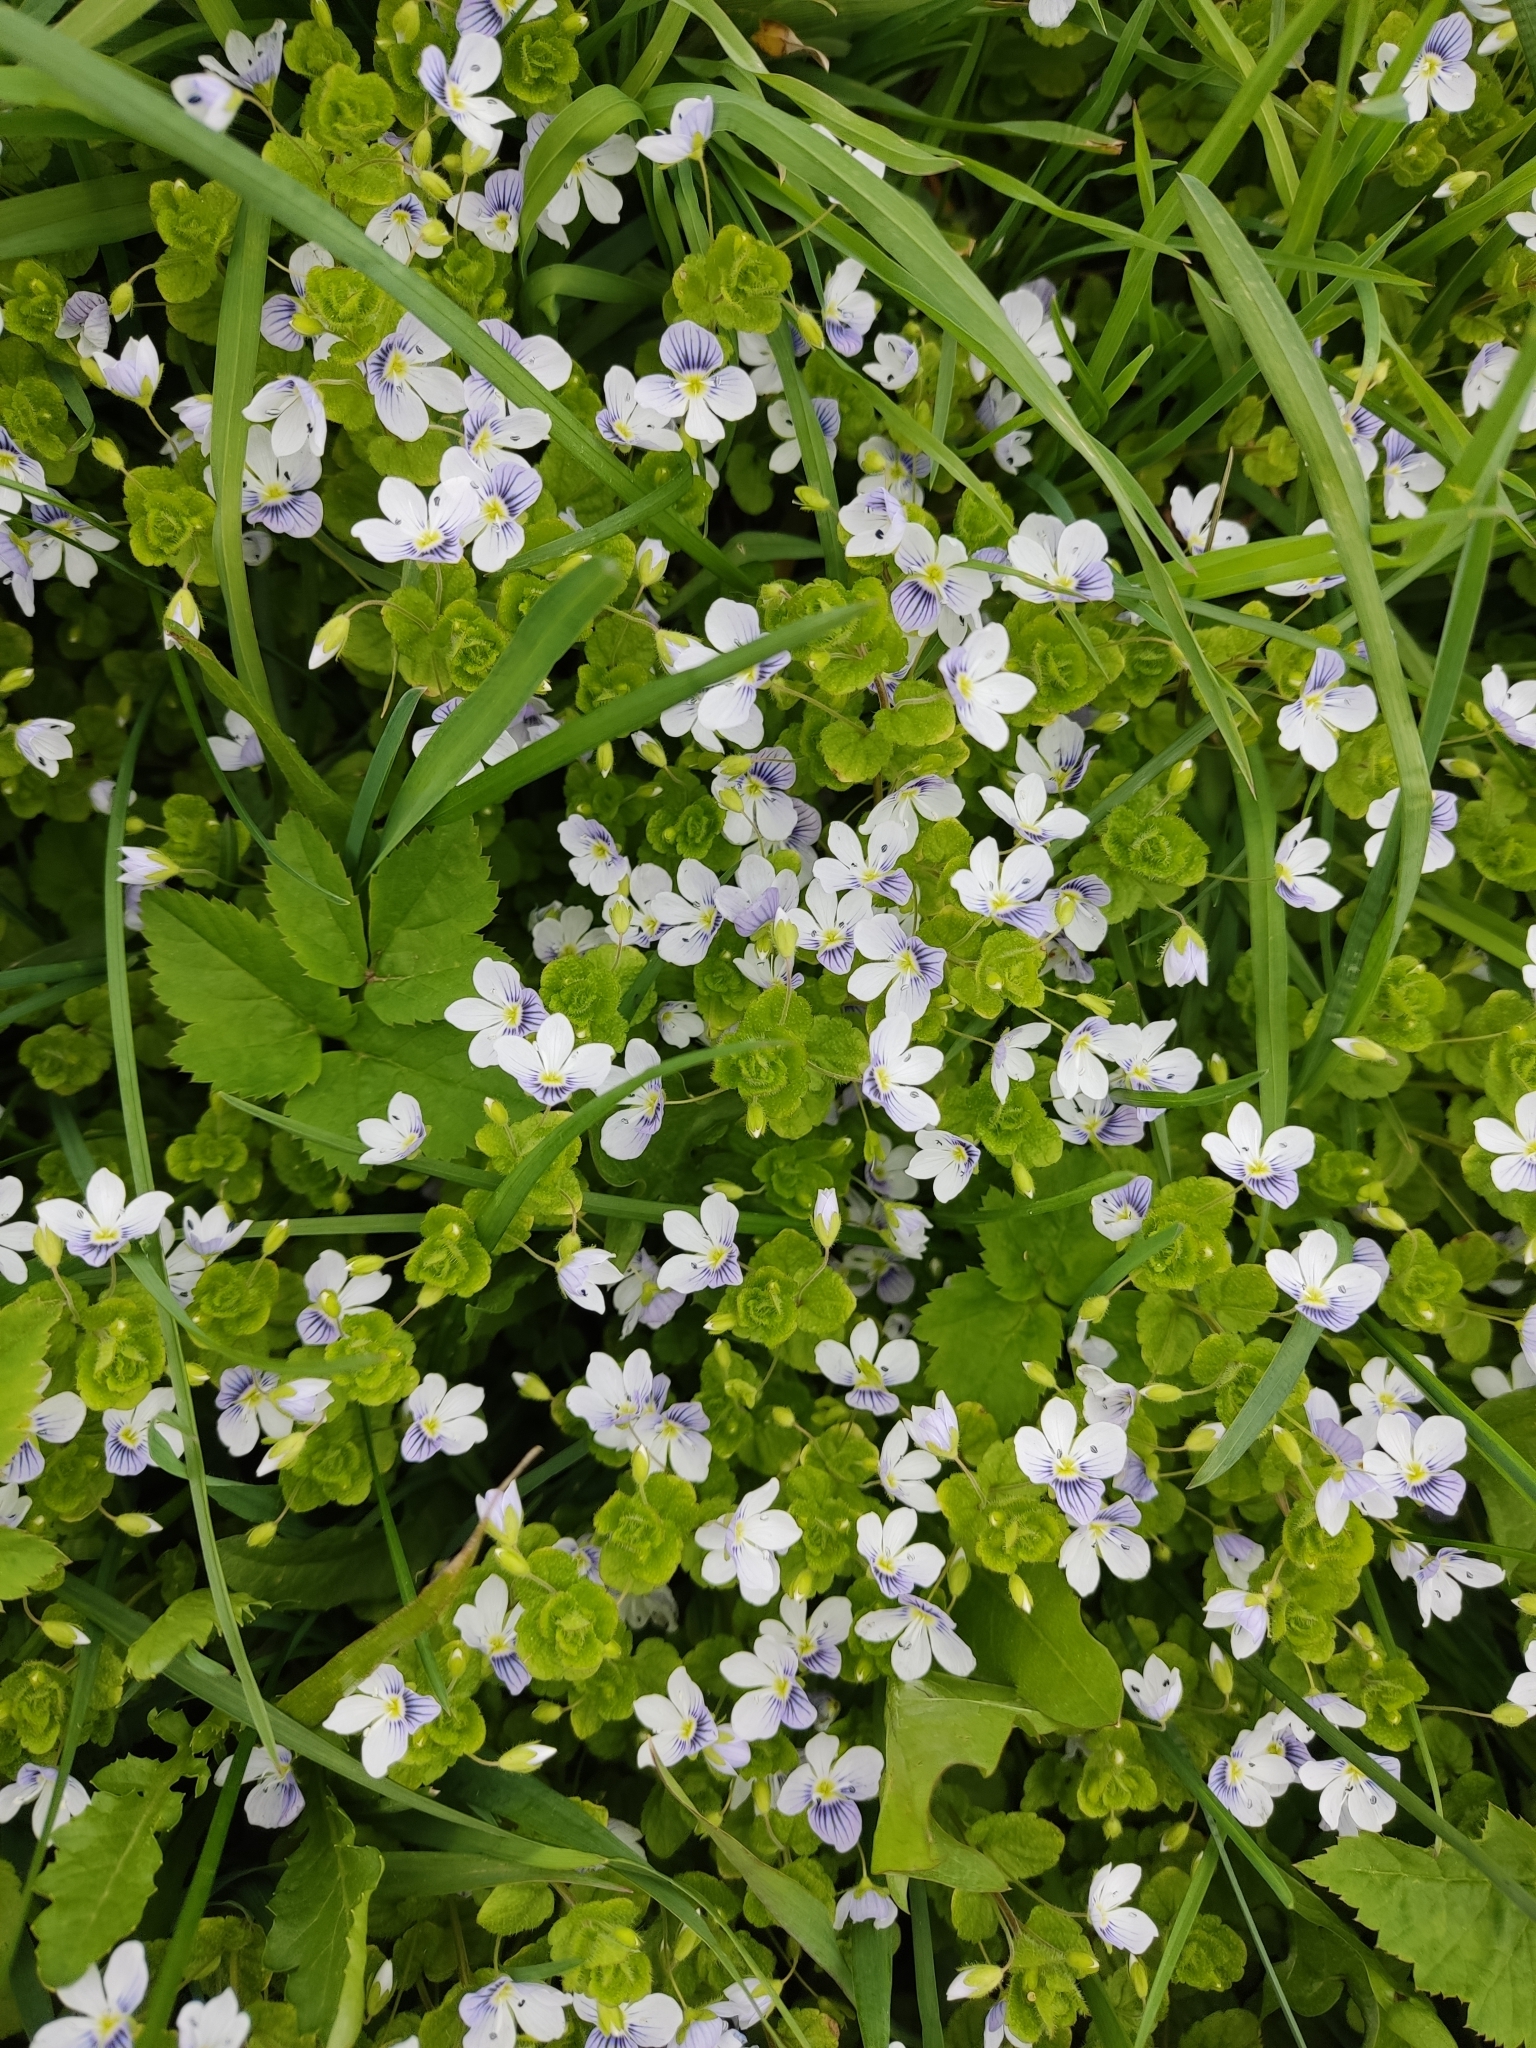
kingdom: Plantae
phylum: Tracheophyta
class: Magnoliopsida
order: Lamiales
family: Plantaginaceae
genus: Veronica
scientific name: Veronica filiformis
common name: Slender speedwell
